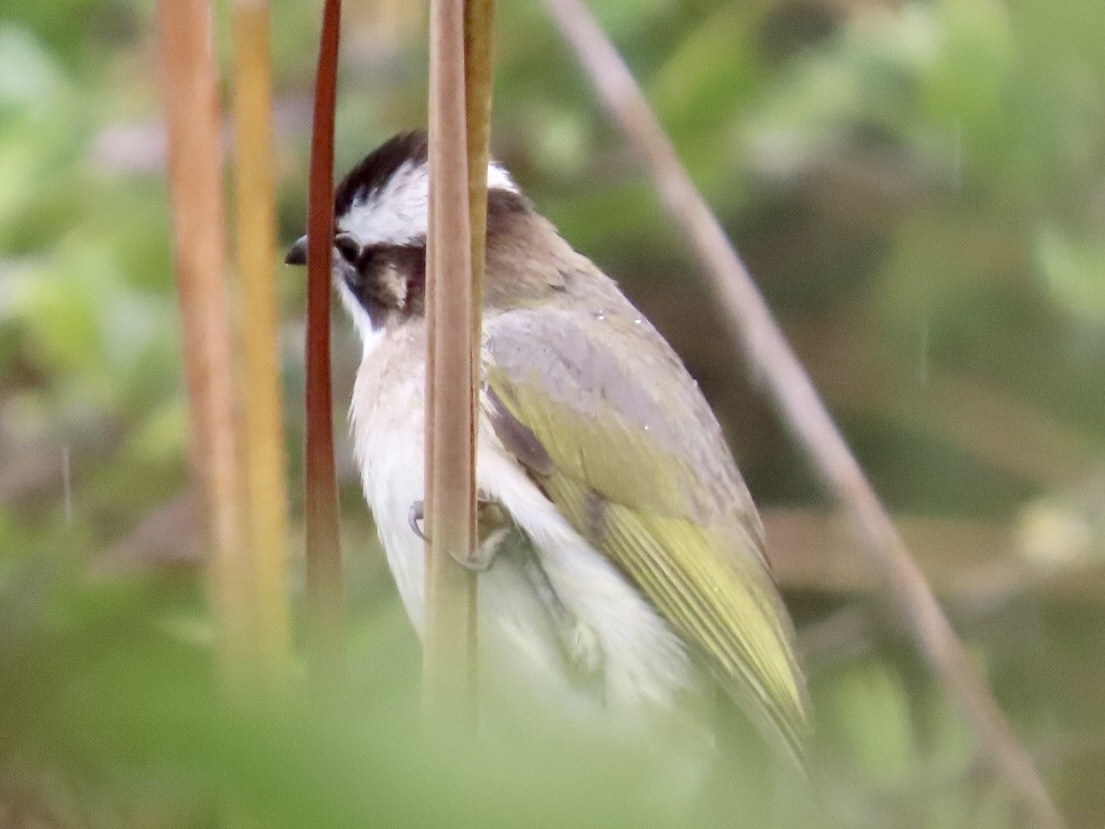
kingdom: Animalia
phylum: Chordata
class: Aves
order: Passeriformes
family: Pycnonotidae
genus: Pycnonotus
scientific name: Pycnonotus sinensis
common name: Light-vented bulbul
